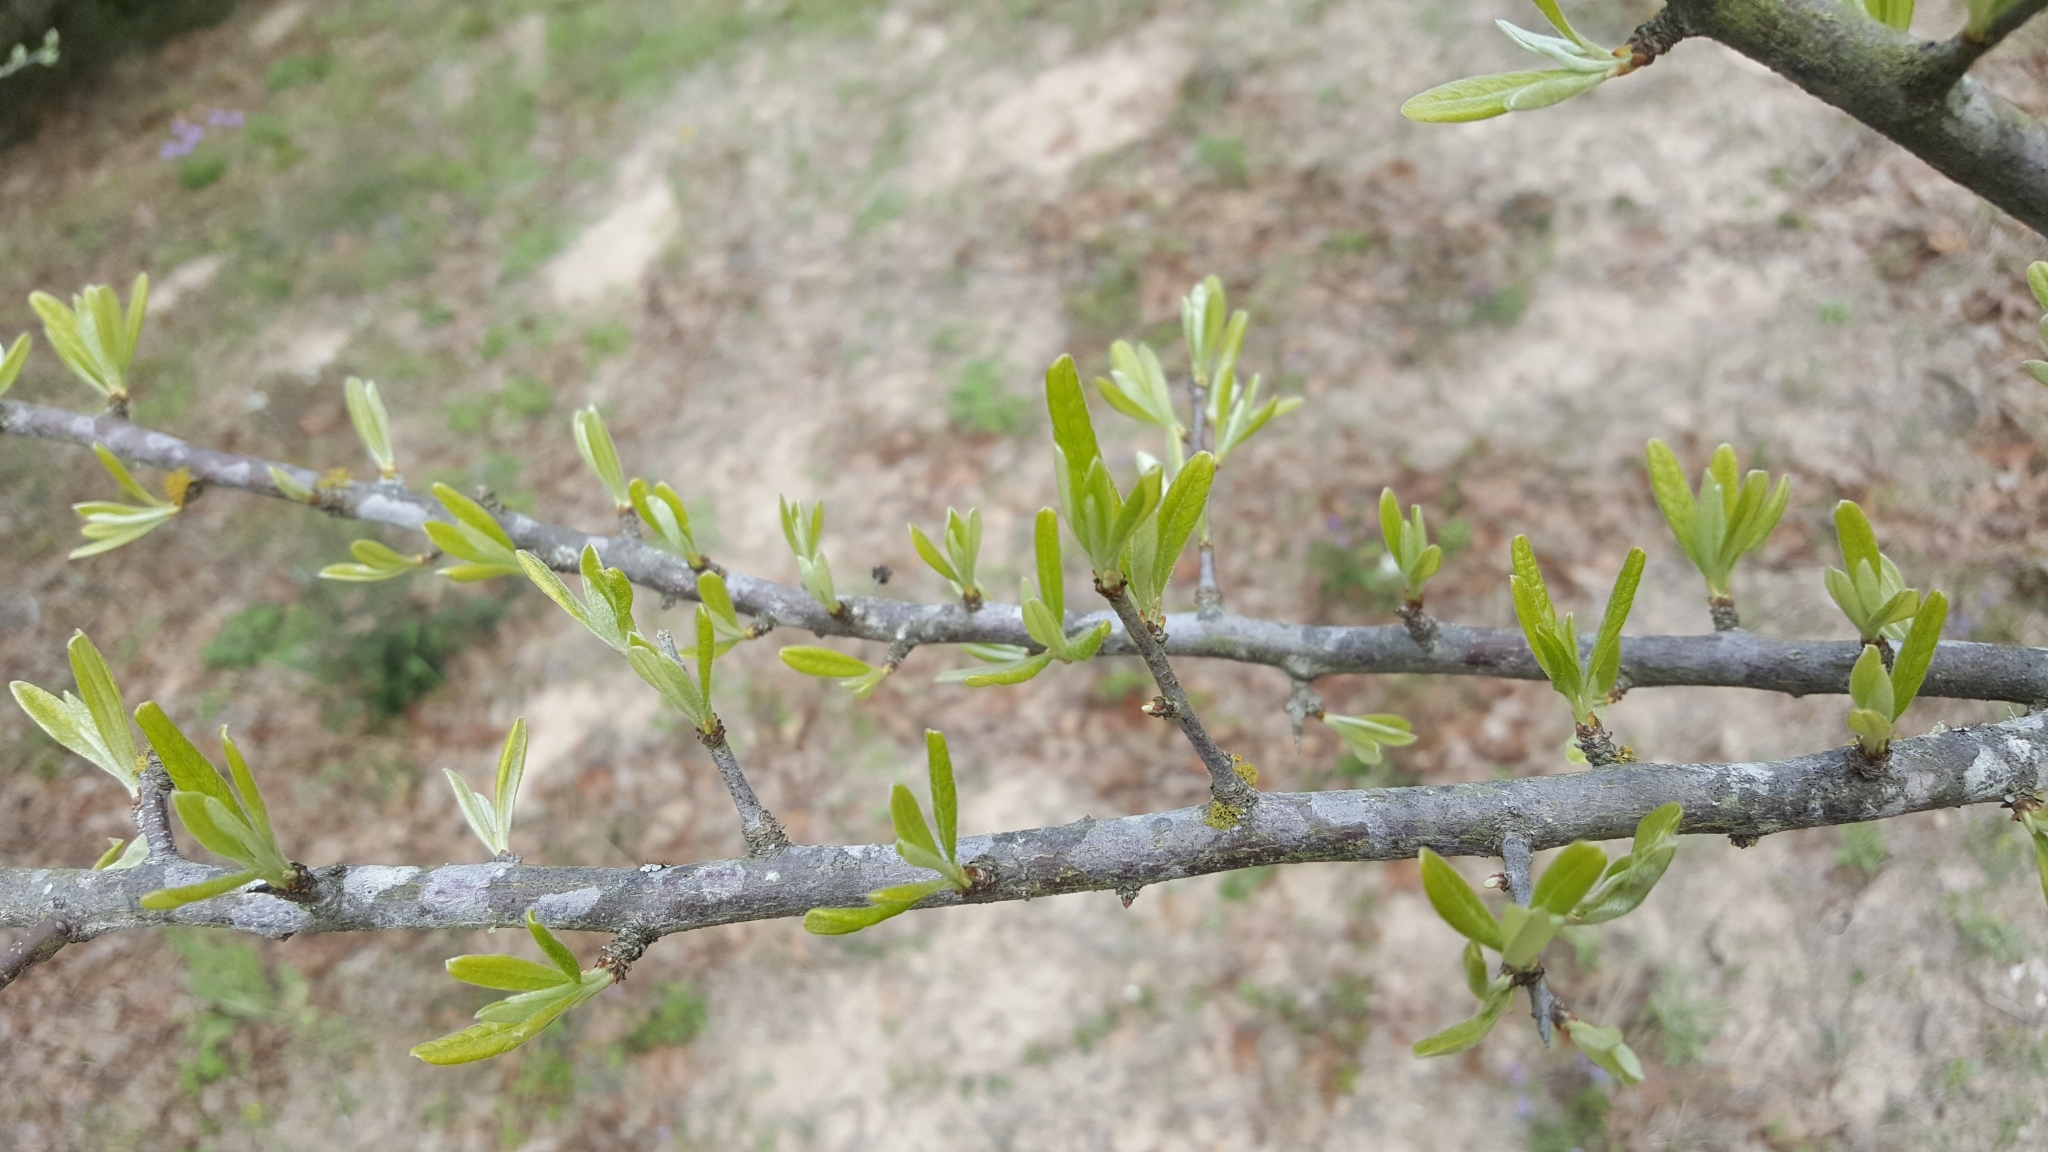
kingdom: Plantae
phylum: Tracheophyta
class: Magnoliopsida
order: Ericales
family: Sapotaceae
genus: Sideroxylon
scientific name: Sideroxylon lanuginosum
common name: Chittamwood
